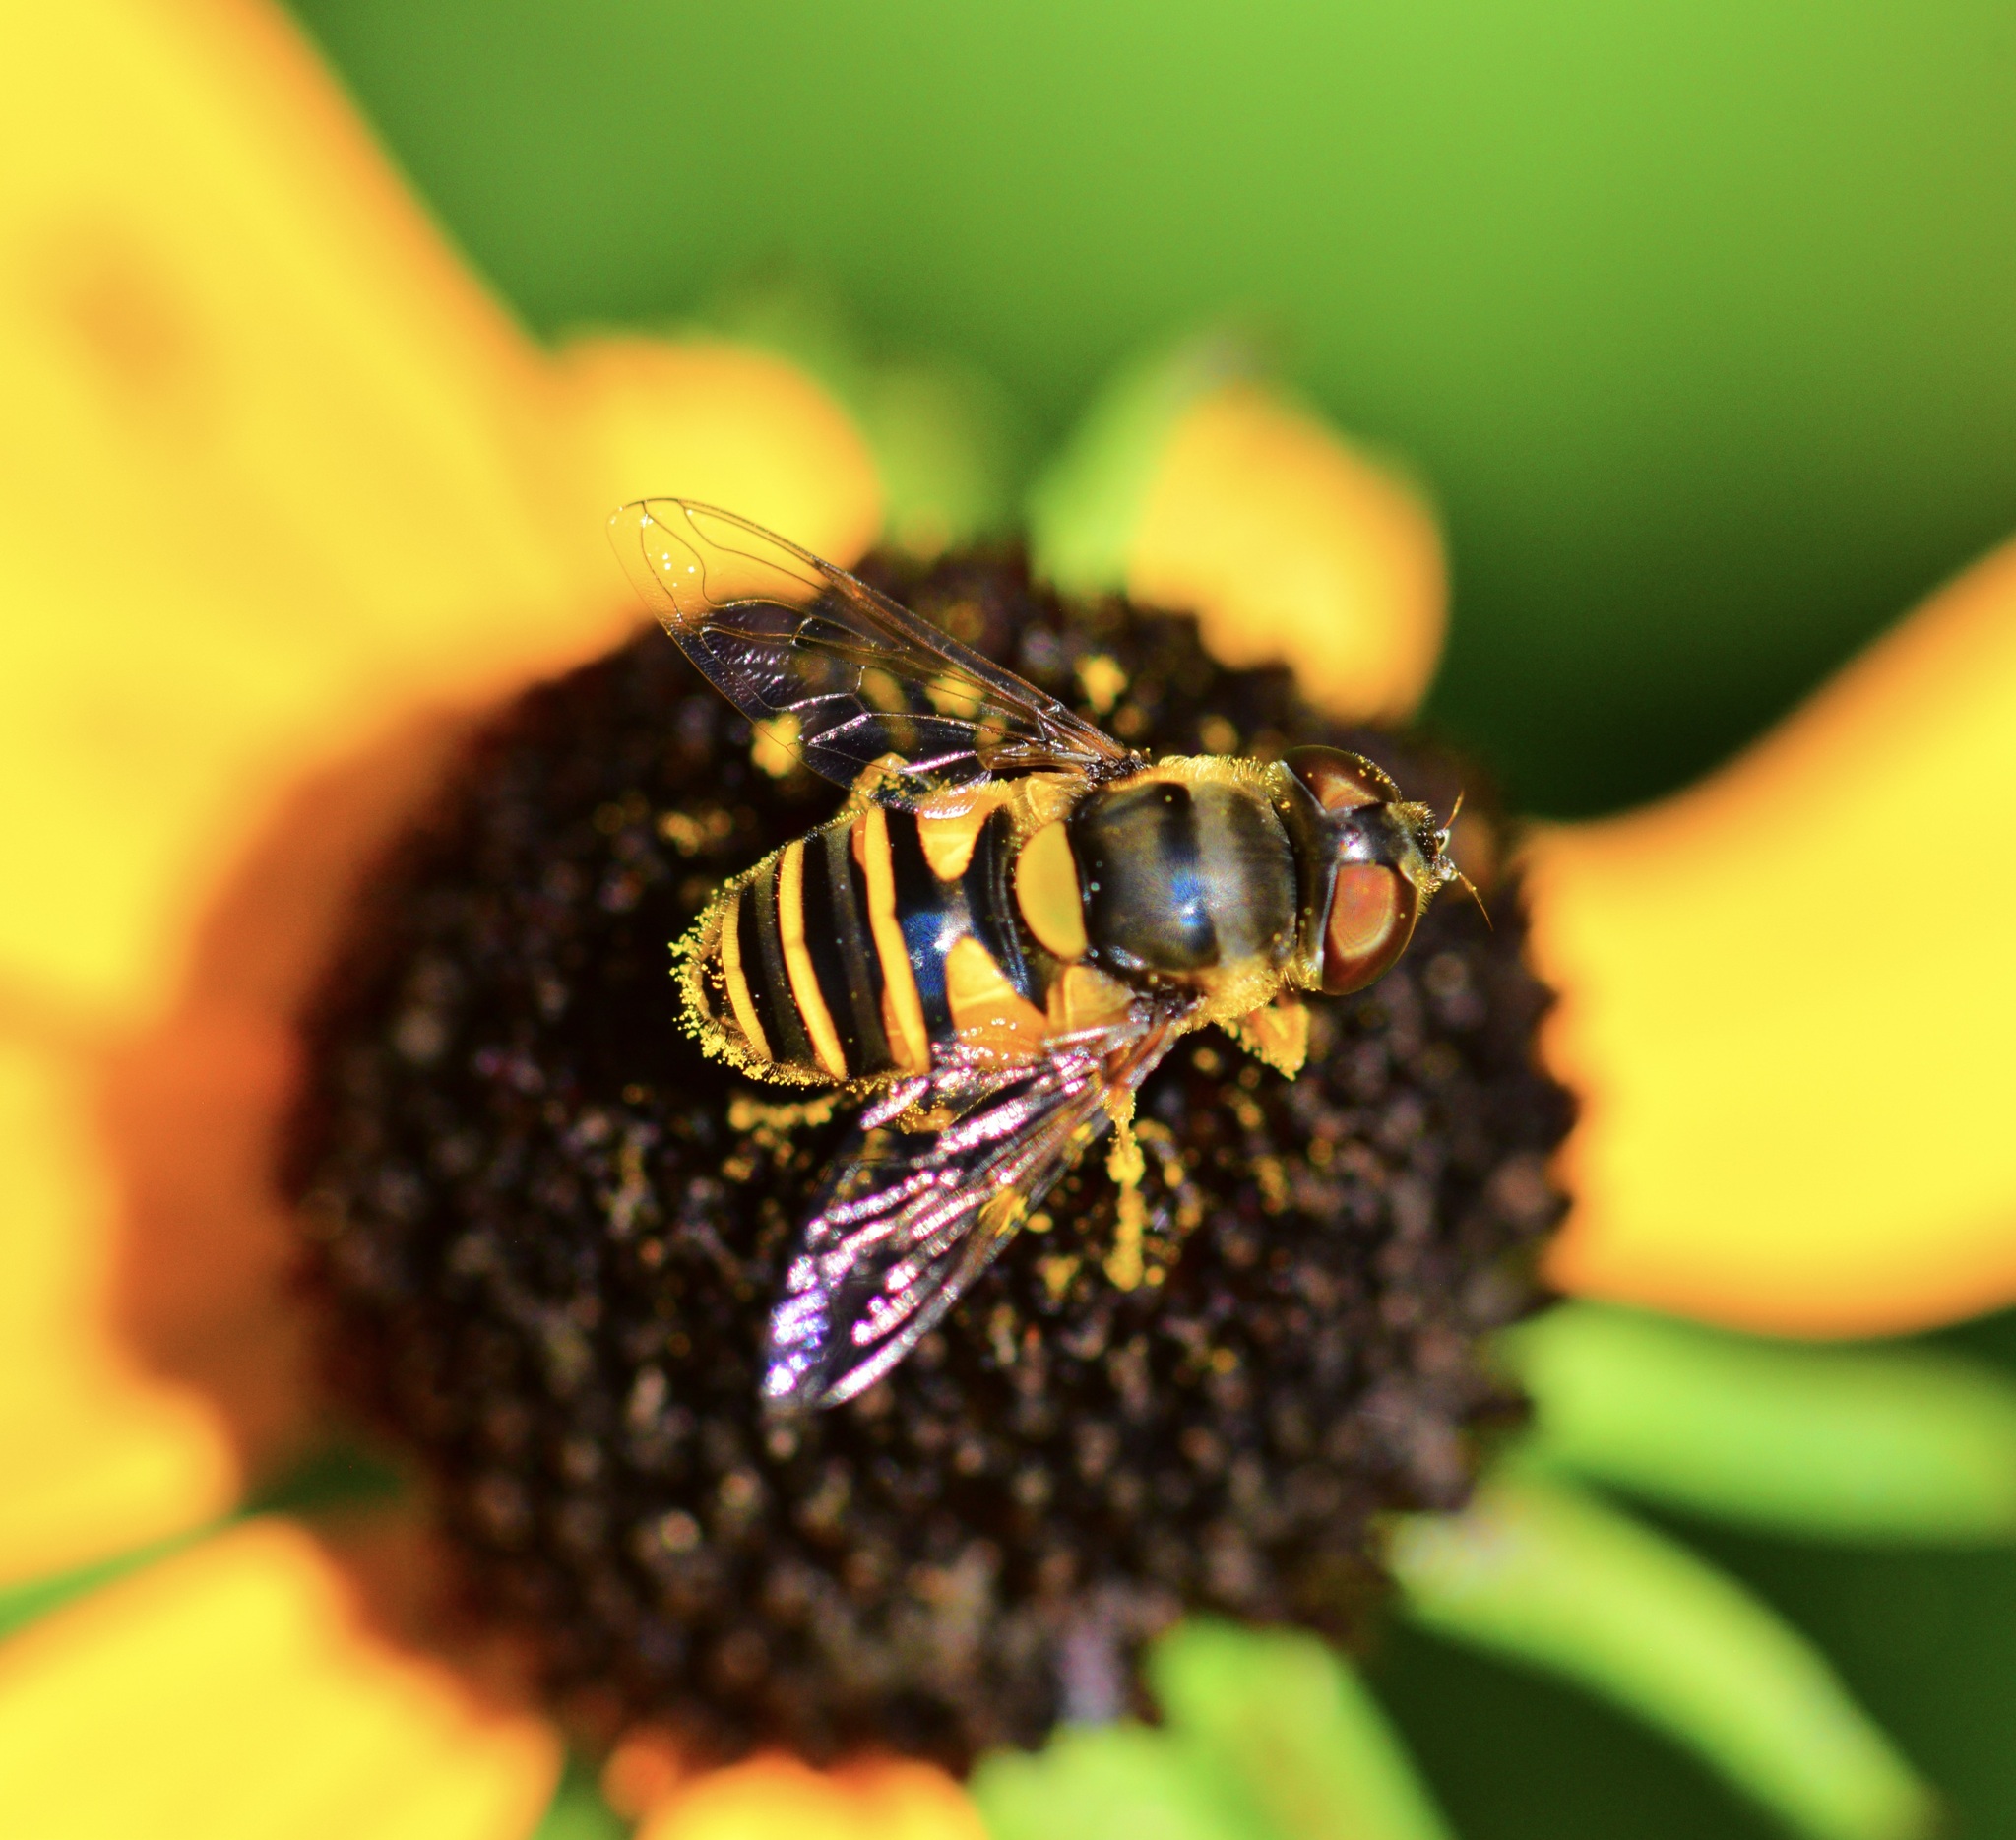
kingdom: Animalia
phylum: Arthropoda
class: Insecta
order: Diptera
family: Syrphidae
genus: Eristalis
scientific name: Eristalis transversa
